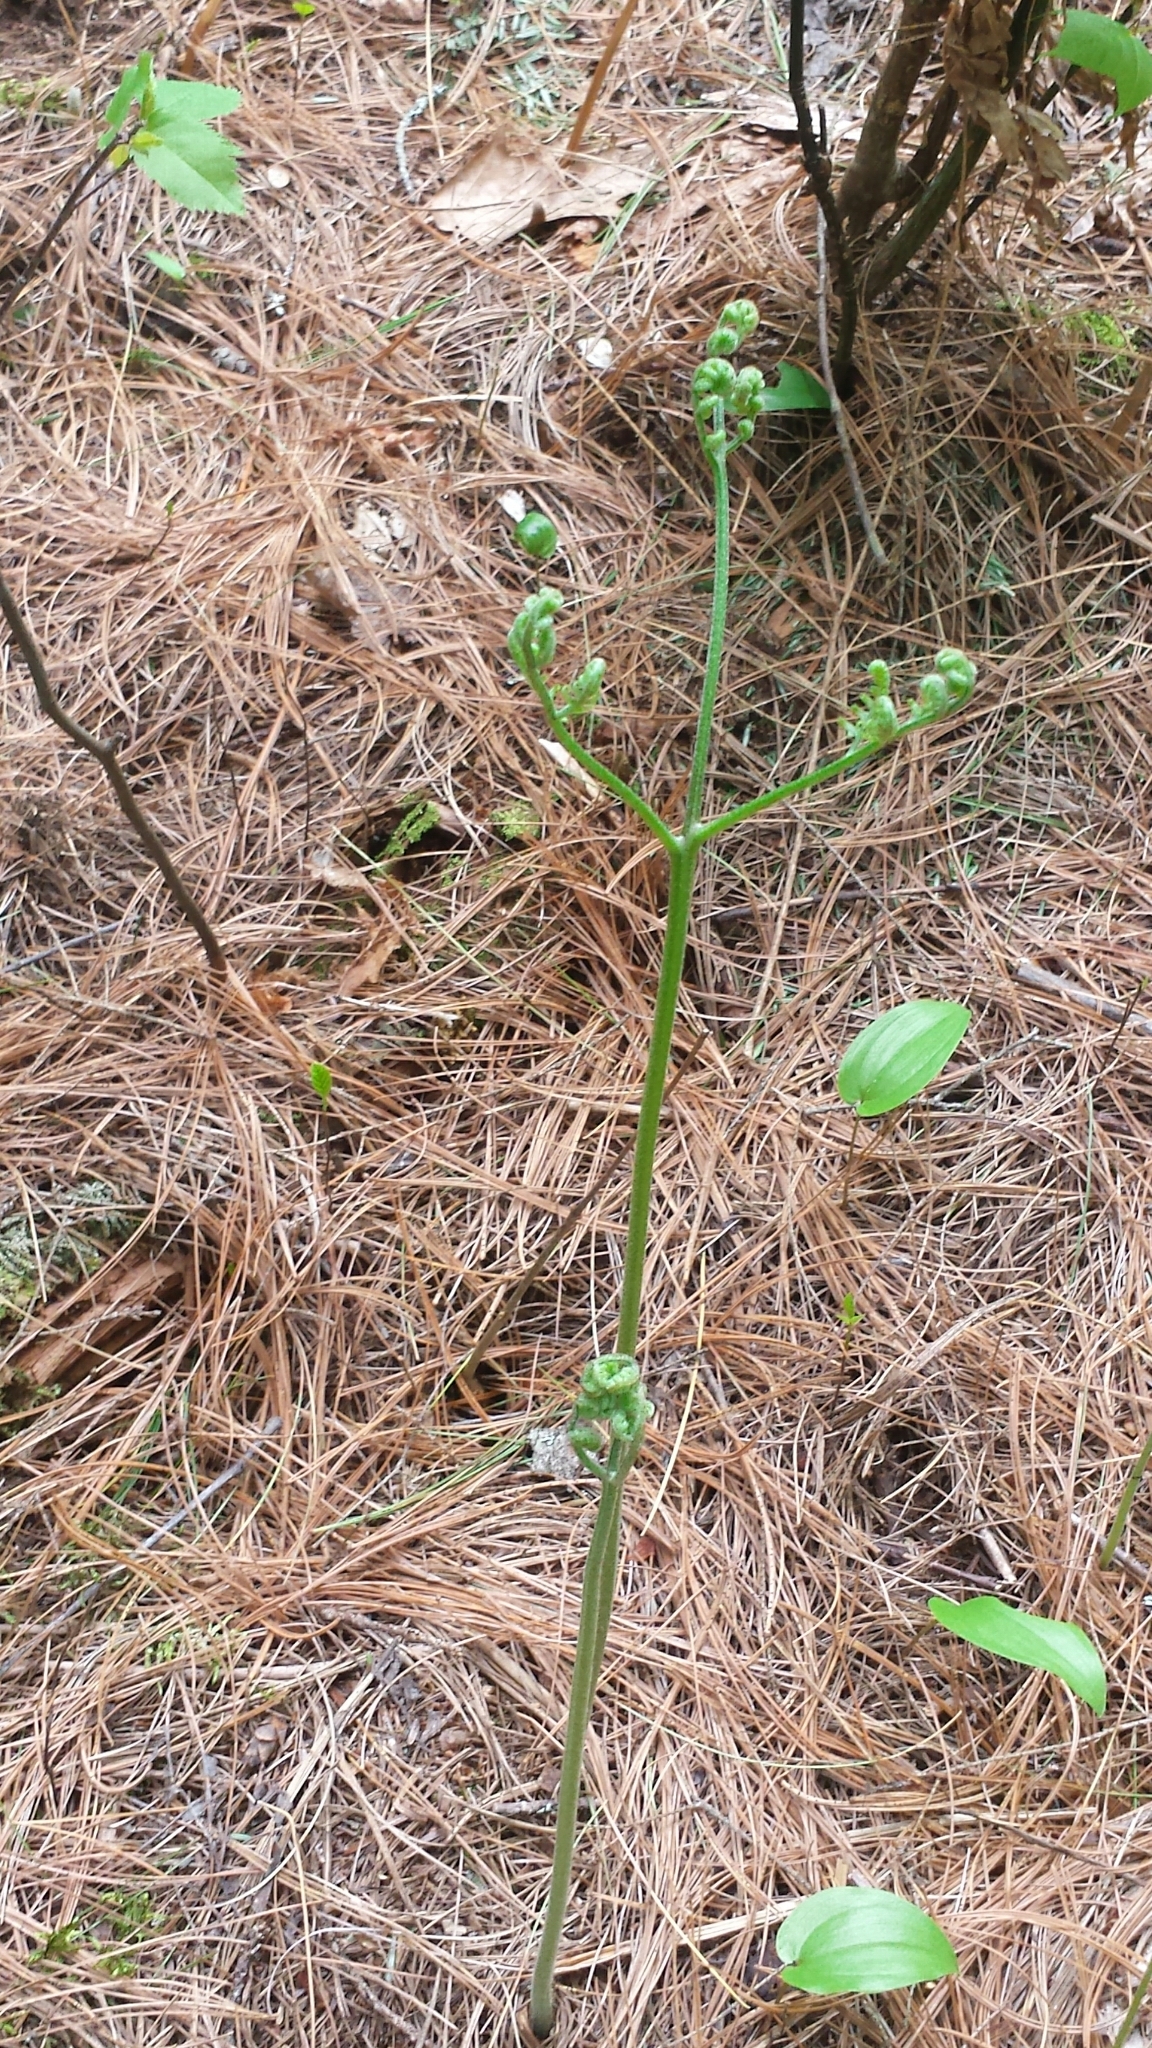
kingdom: Plantae
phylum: Tracheophyta
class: Polypodiopsida
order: Polypodiales
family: Dennstaedtiaceae
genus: Pteridium
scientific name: Pteridium aquilinum
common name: Bracken
